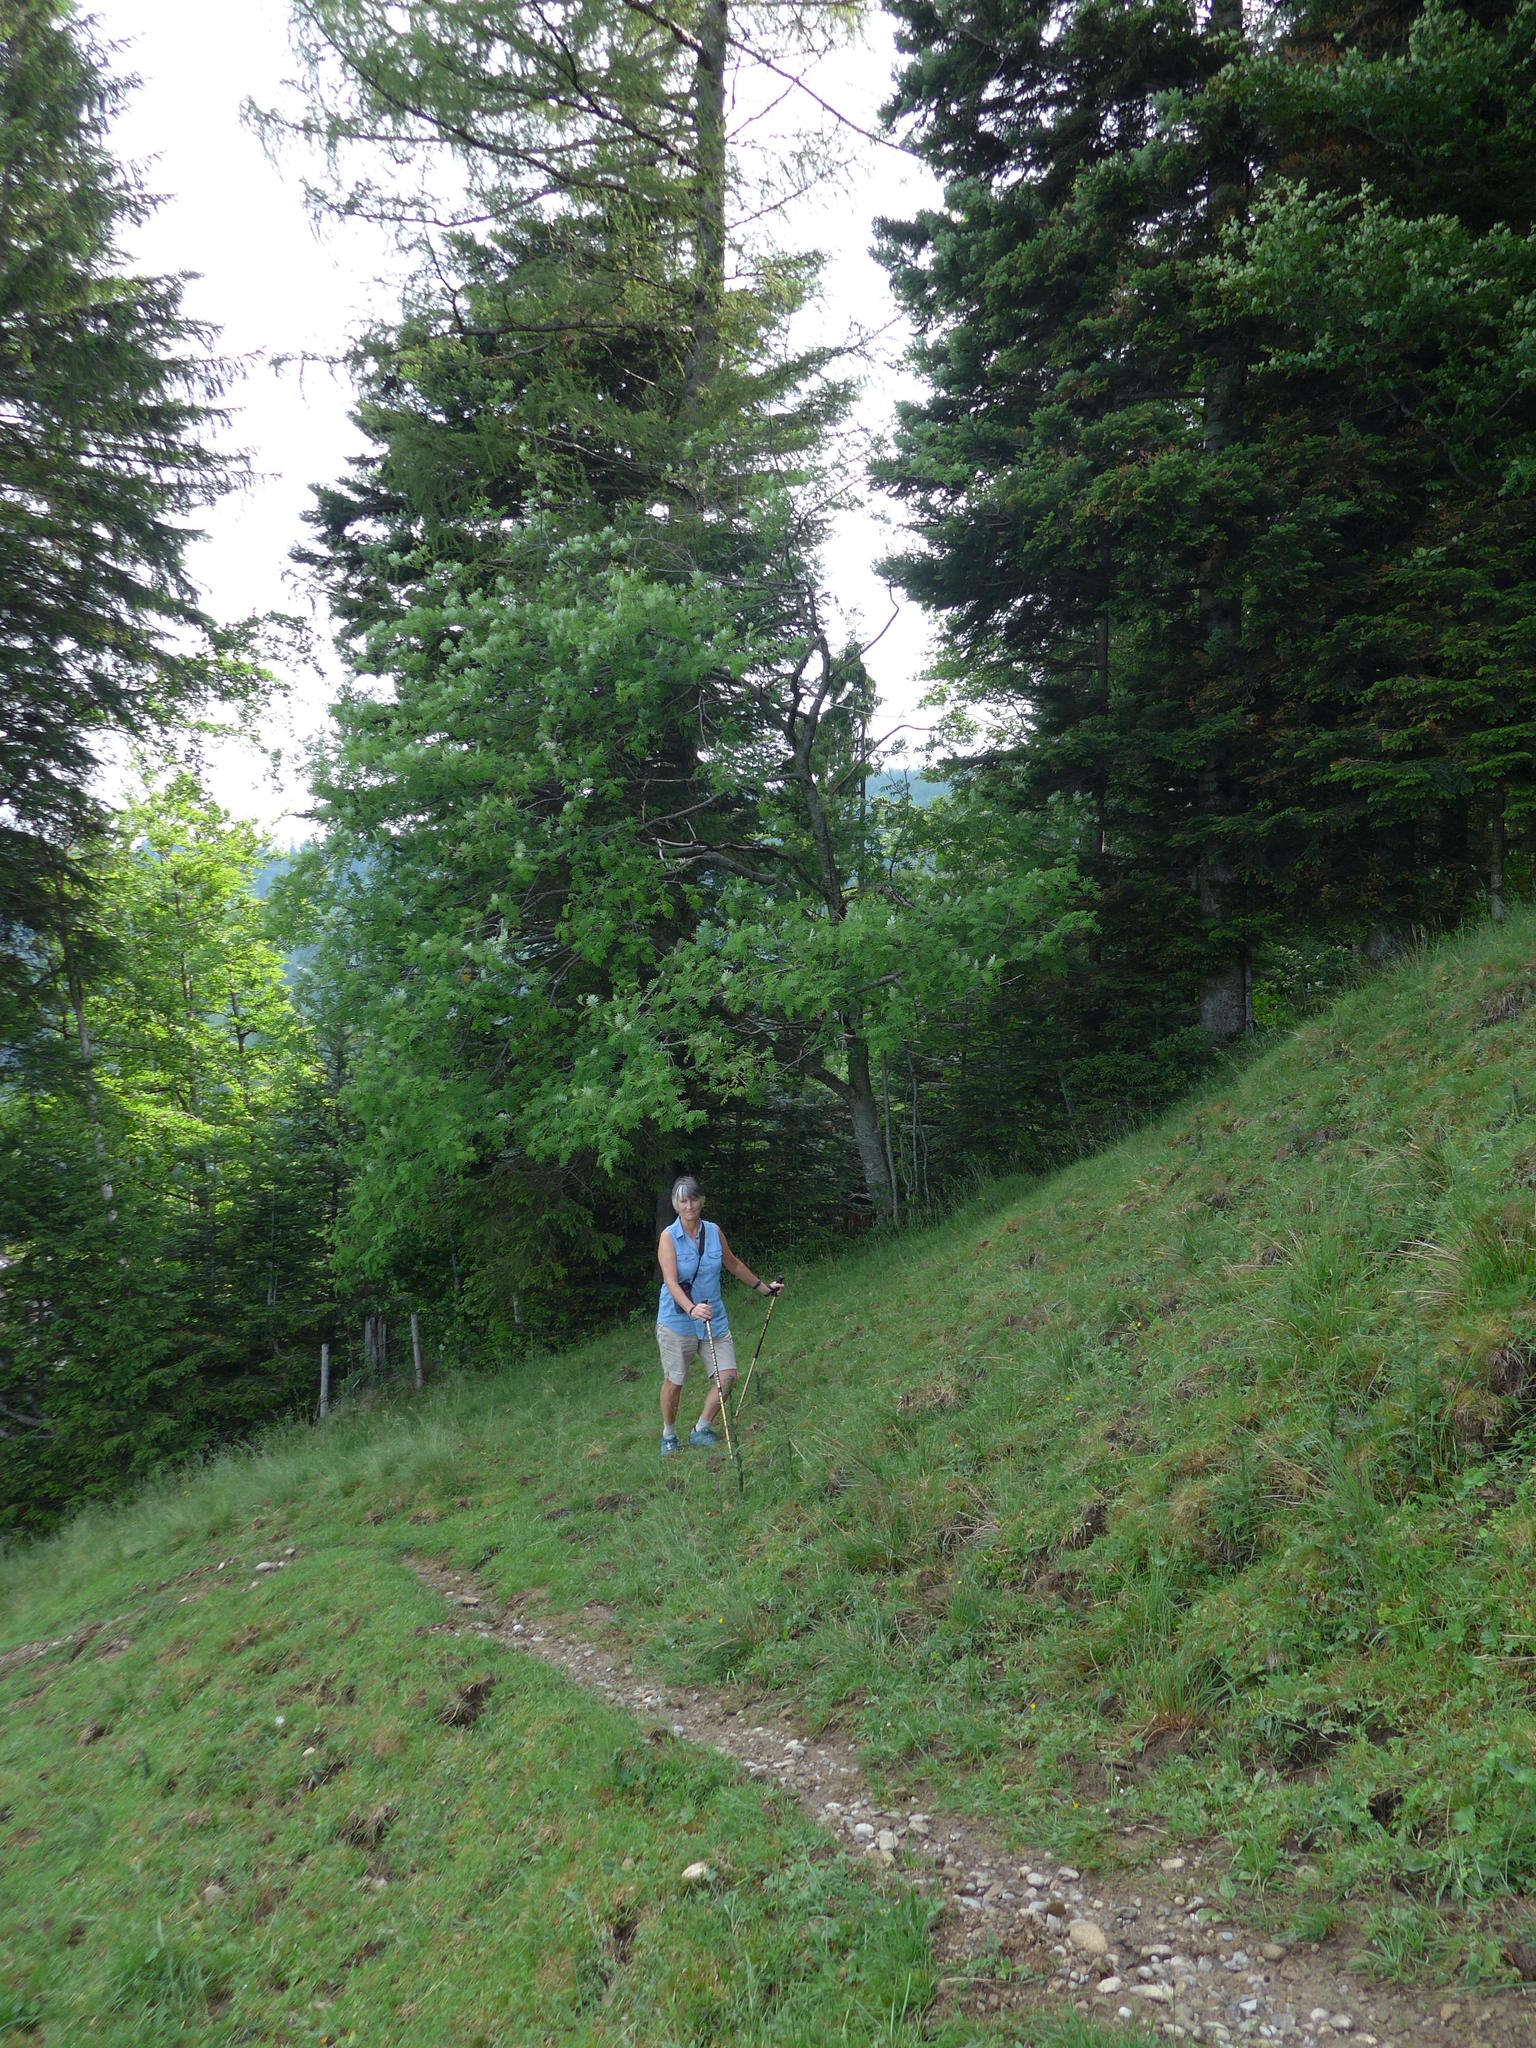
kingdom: Plantae
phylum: Tracheophyta
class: Magnoliopsida
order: Rosales
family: Rosaceae
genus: Sorbus
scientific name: Sorbus aucuparia
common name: Rowan
